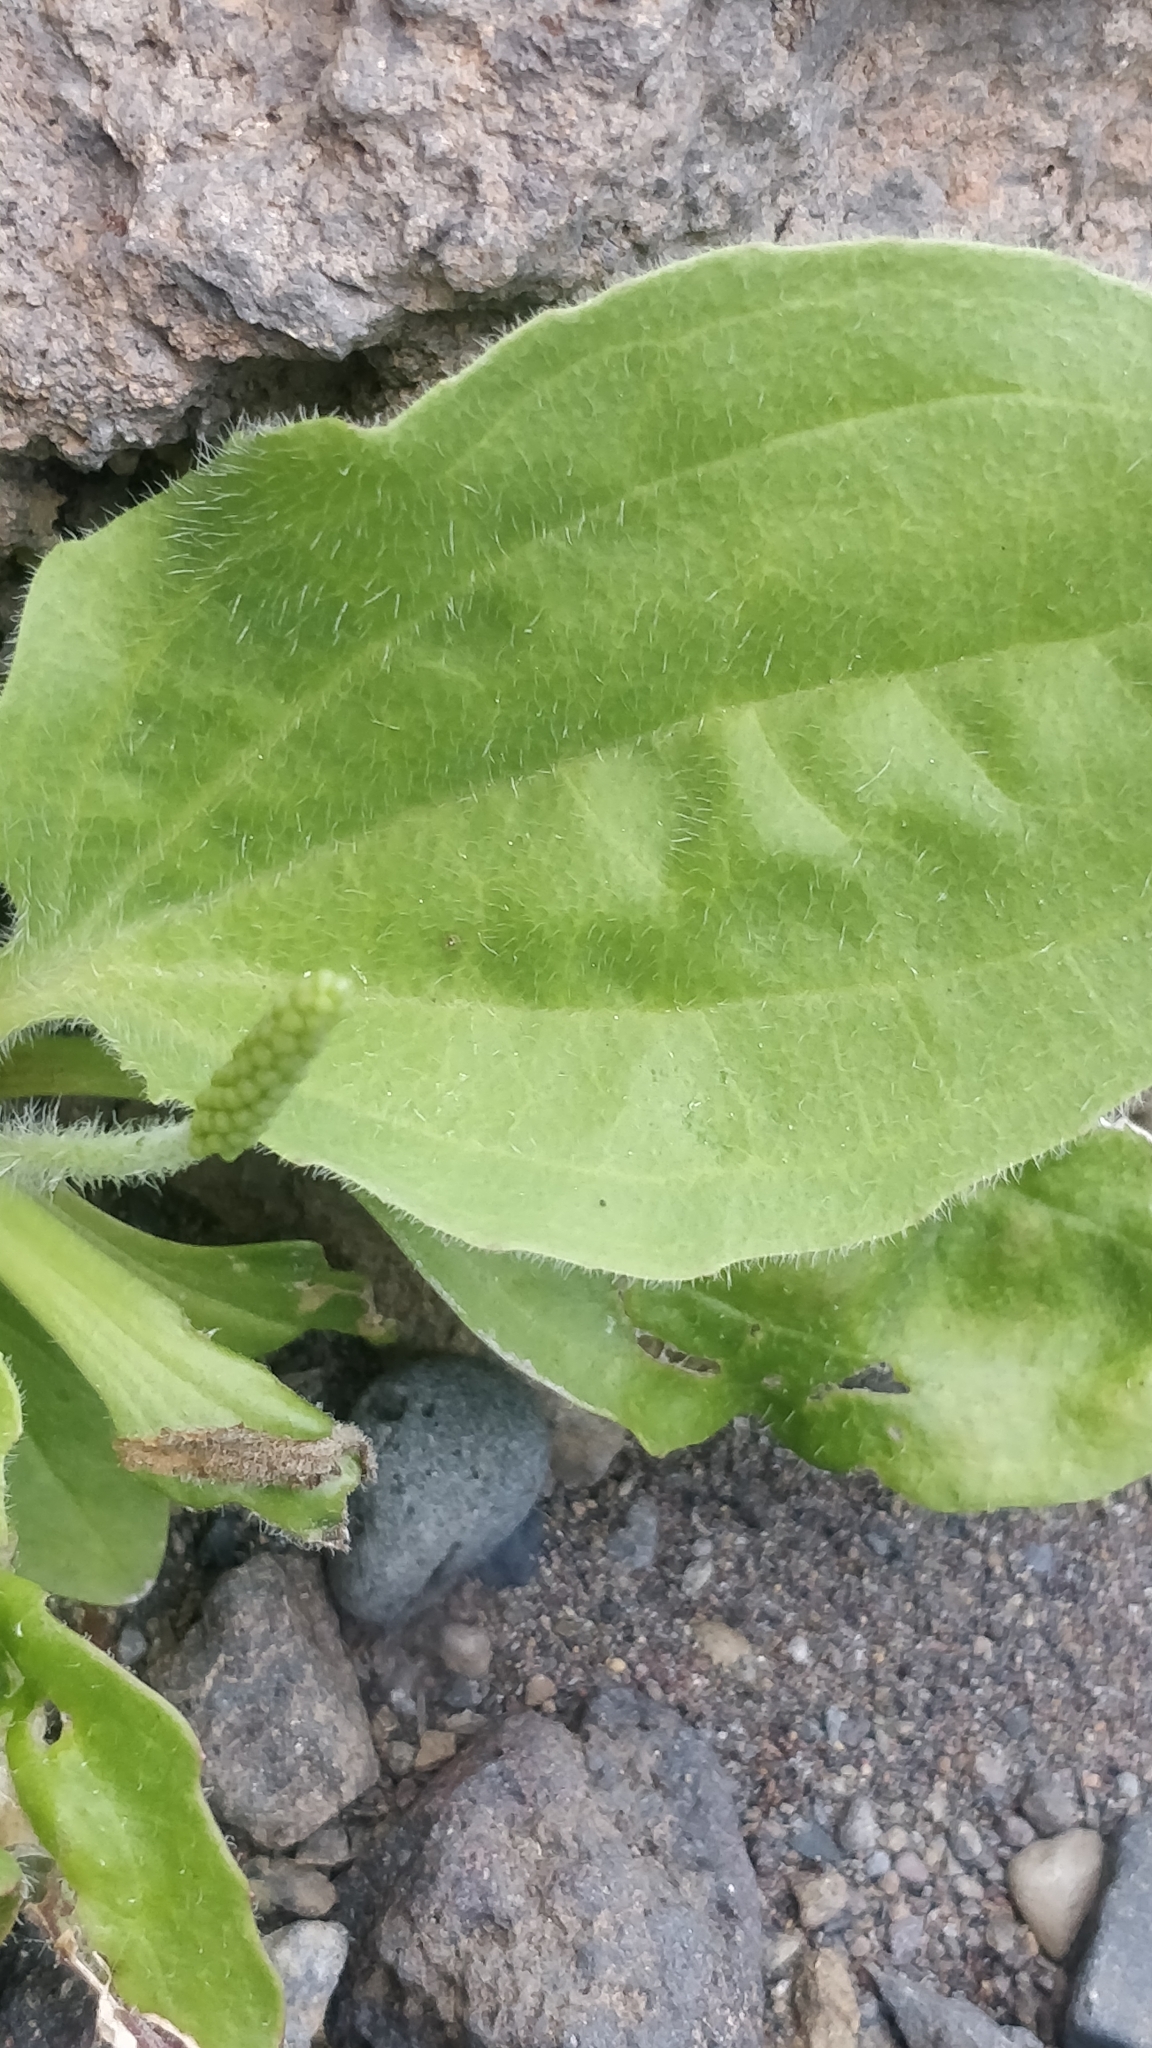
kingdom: Plantae
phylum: Tracheophyta
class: Magnoliopsida
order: Lamiales
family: Plantaginaceae
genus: Plantago
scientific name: Plantago major
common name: Common plantain
